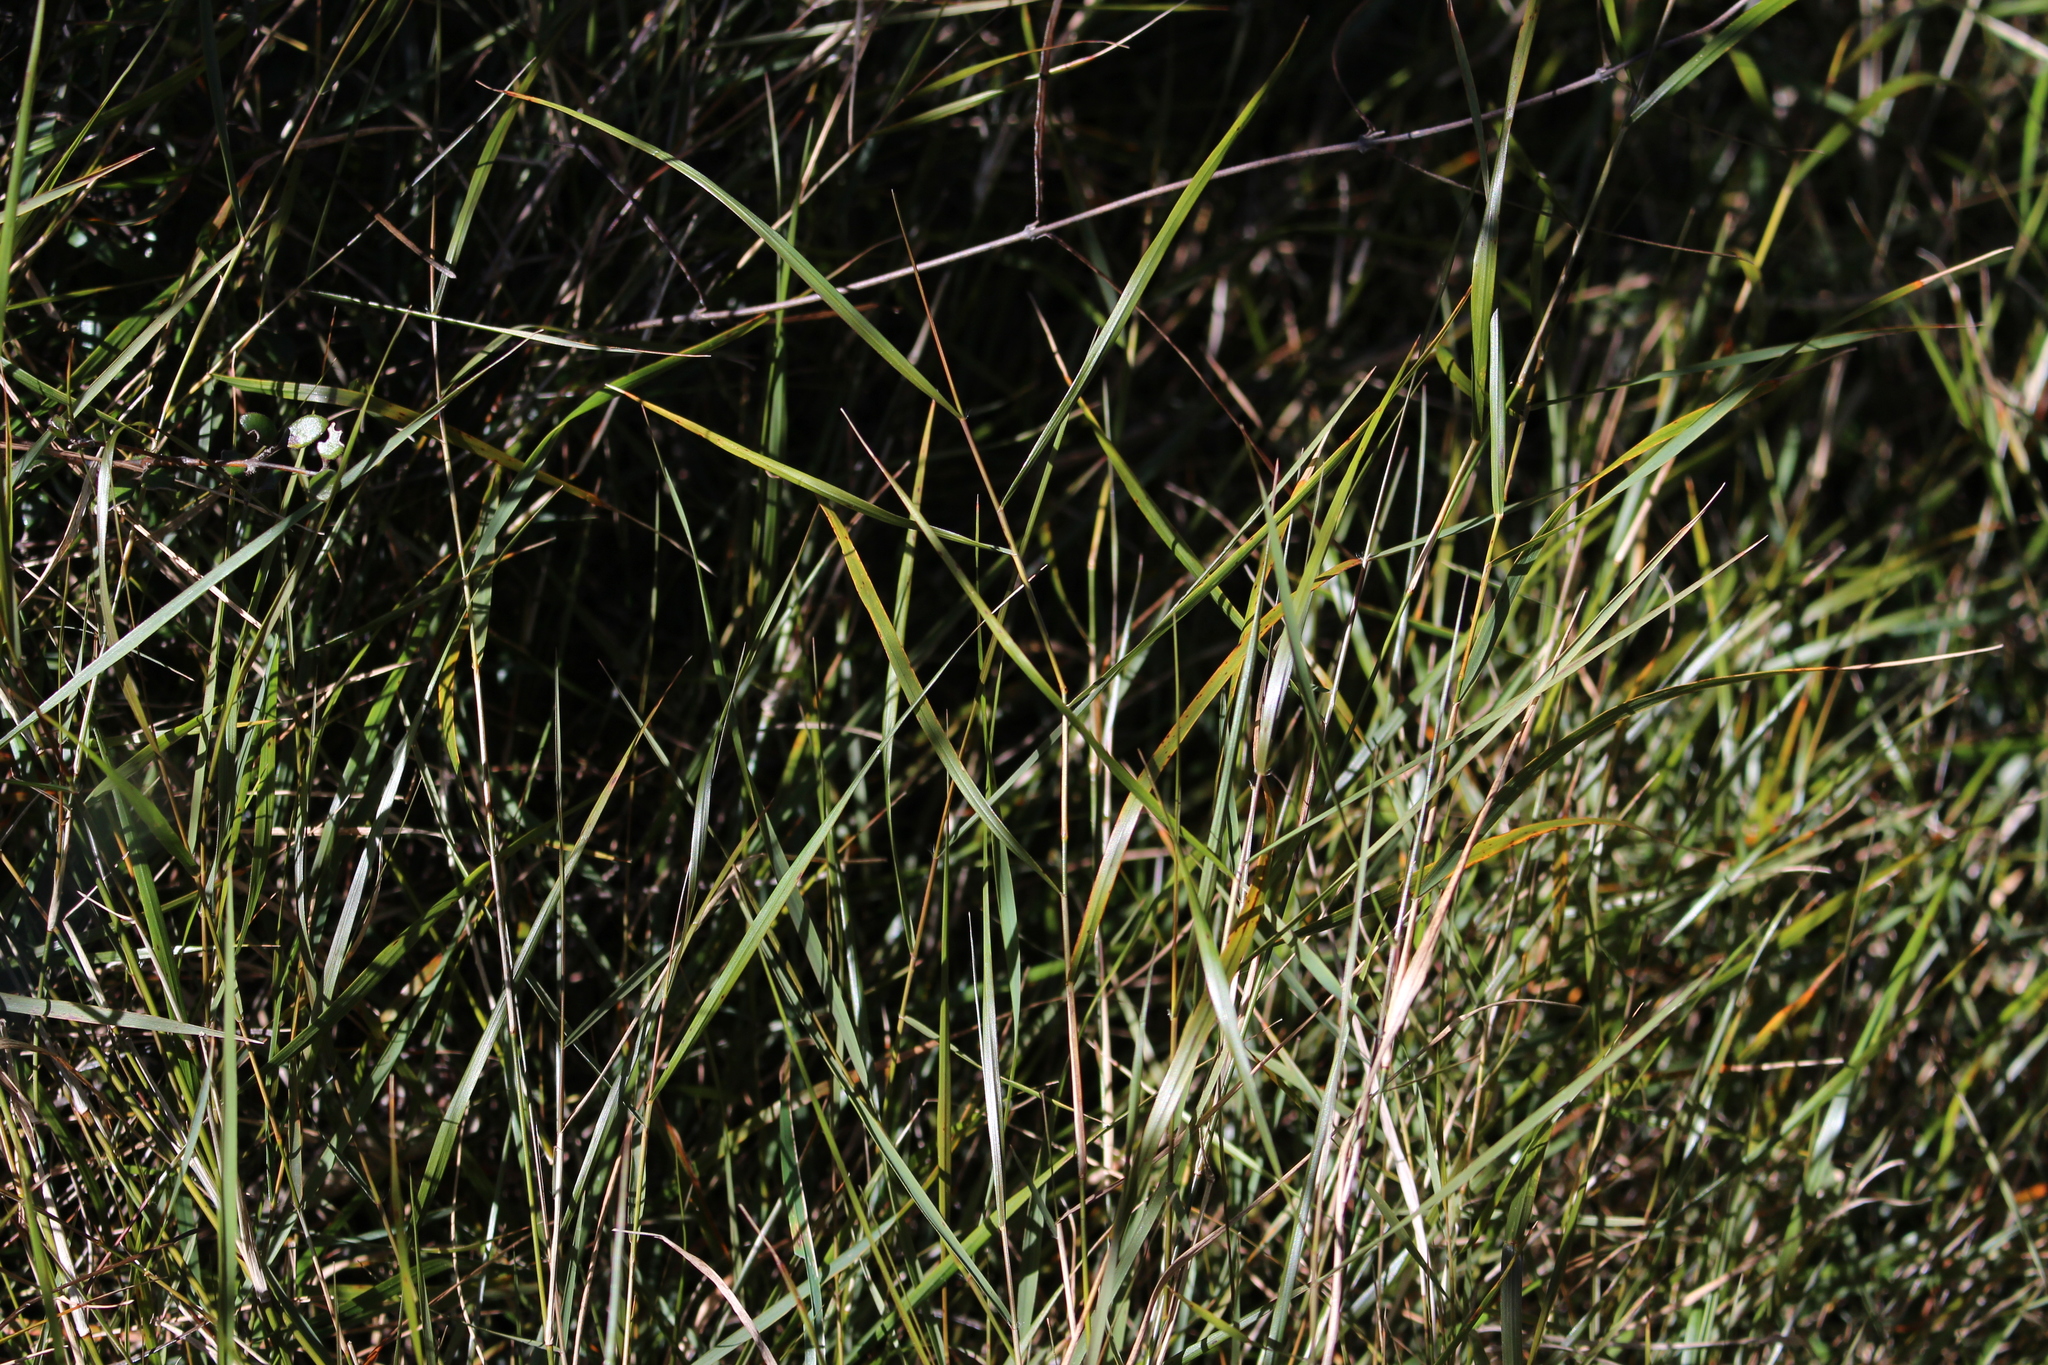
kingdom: Plantae
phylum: Tracheophyta
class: Liliopsida
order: Poales
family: Poaceae
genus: Microlaena
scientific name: Microlaena stipoides
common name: Meadow ricegrass
